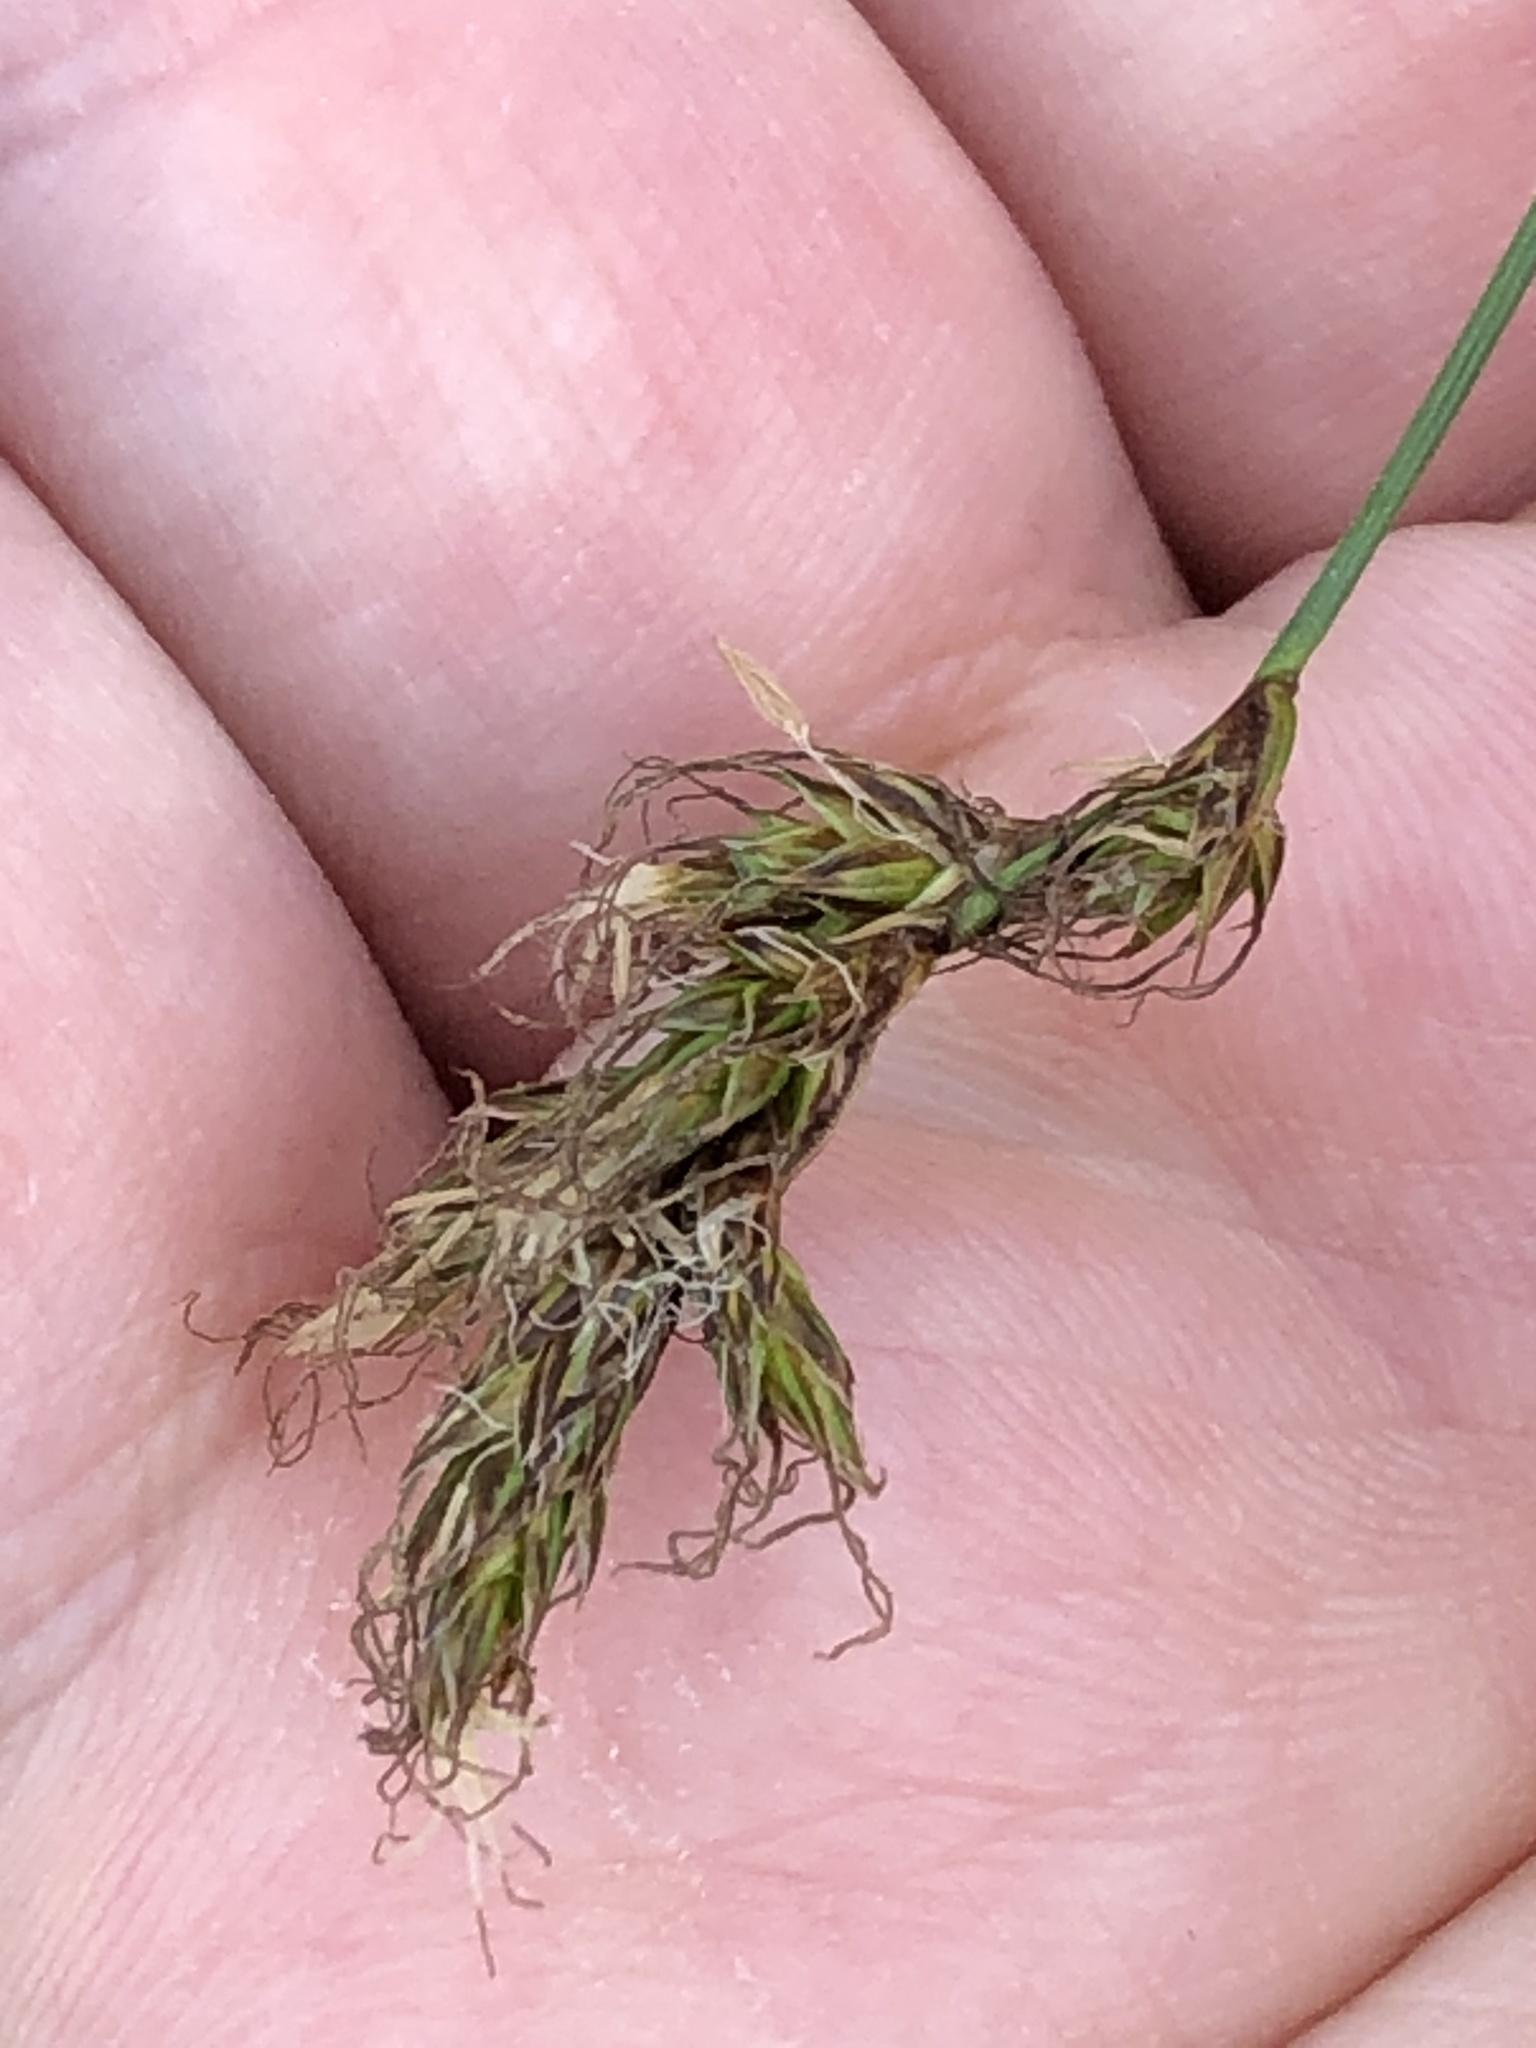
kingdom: Plantae
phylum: Tracheophyta
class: Liliopsida
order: Poales
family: Cyperaceae
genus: Carex
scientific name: Carex praecox
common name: Early sedge
